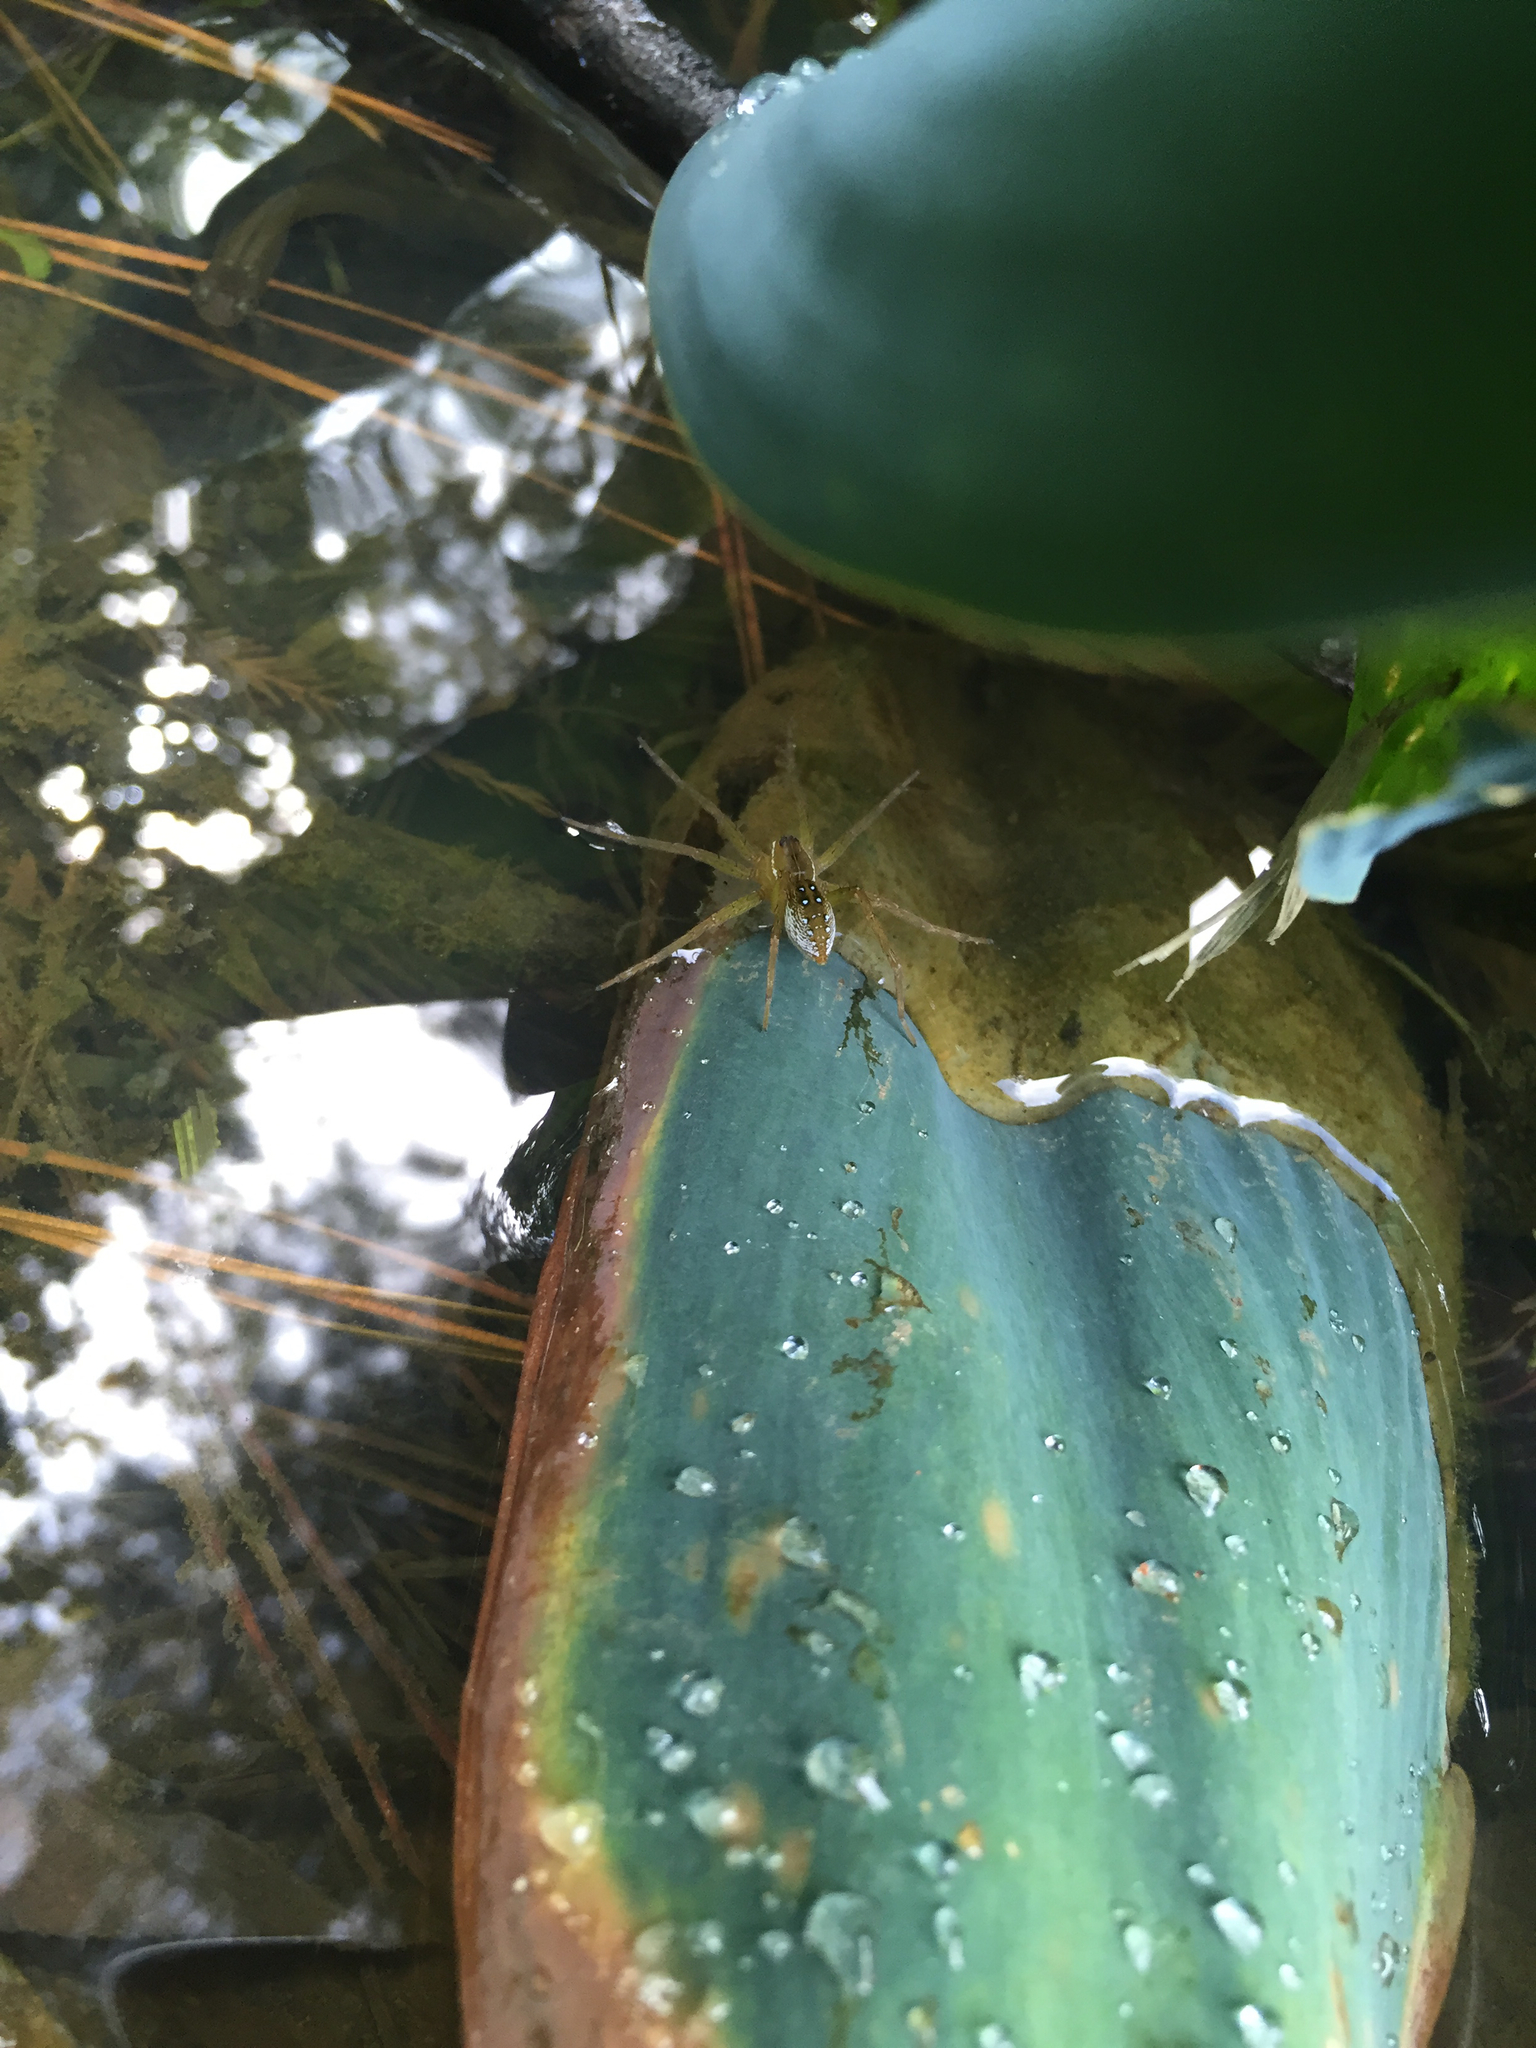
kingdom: Animalia
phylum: Arthropoda
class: Arachnida
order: Araneae
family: Pisauridae
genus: Dolomedes
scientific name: Dolomedes triton
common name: Six-spotted fishing spider
